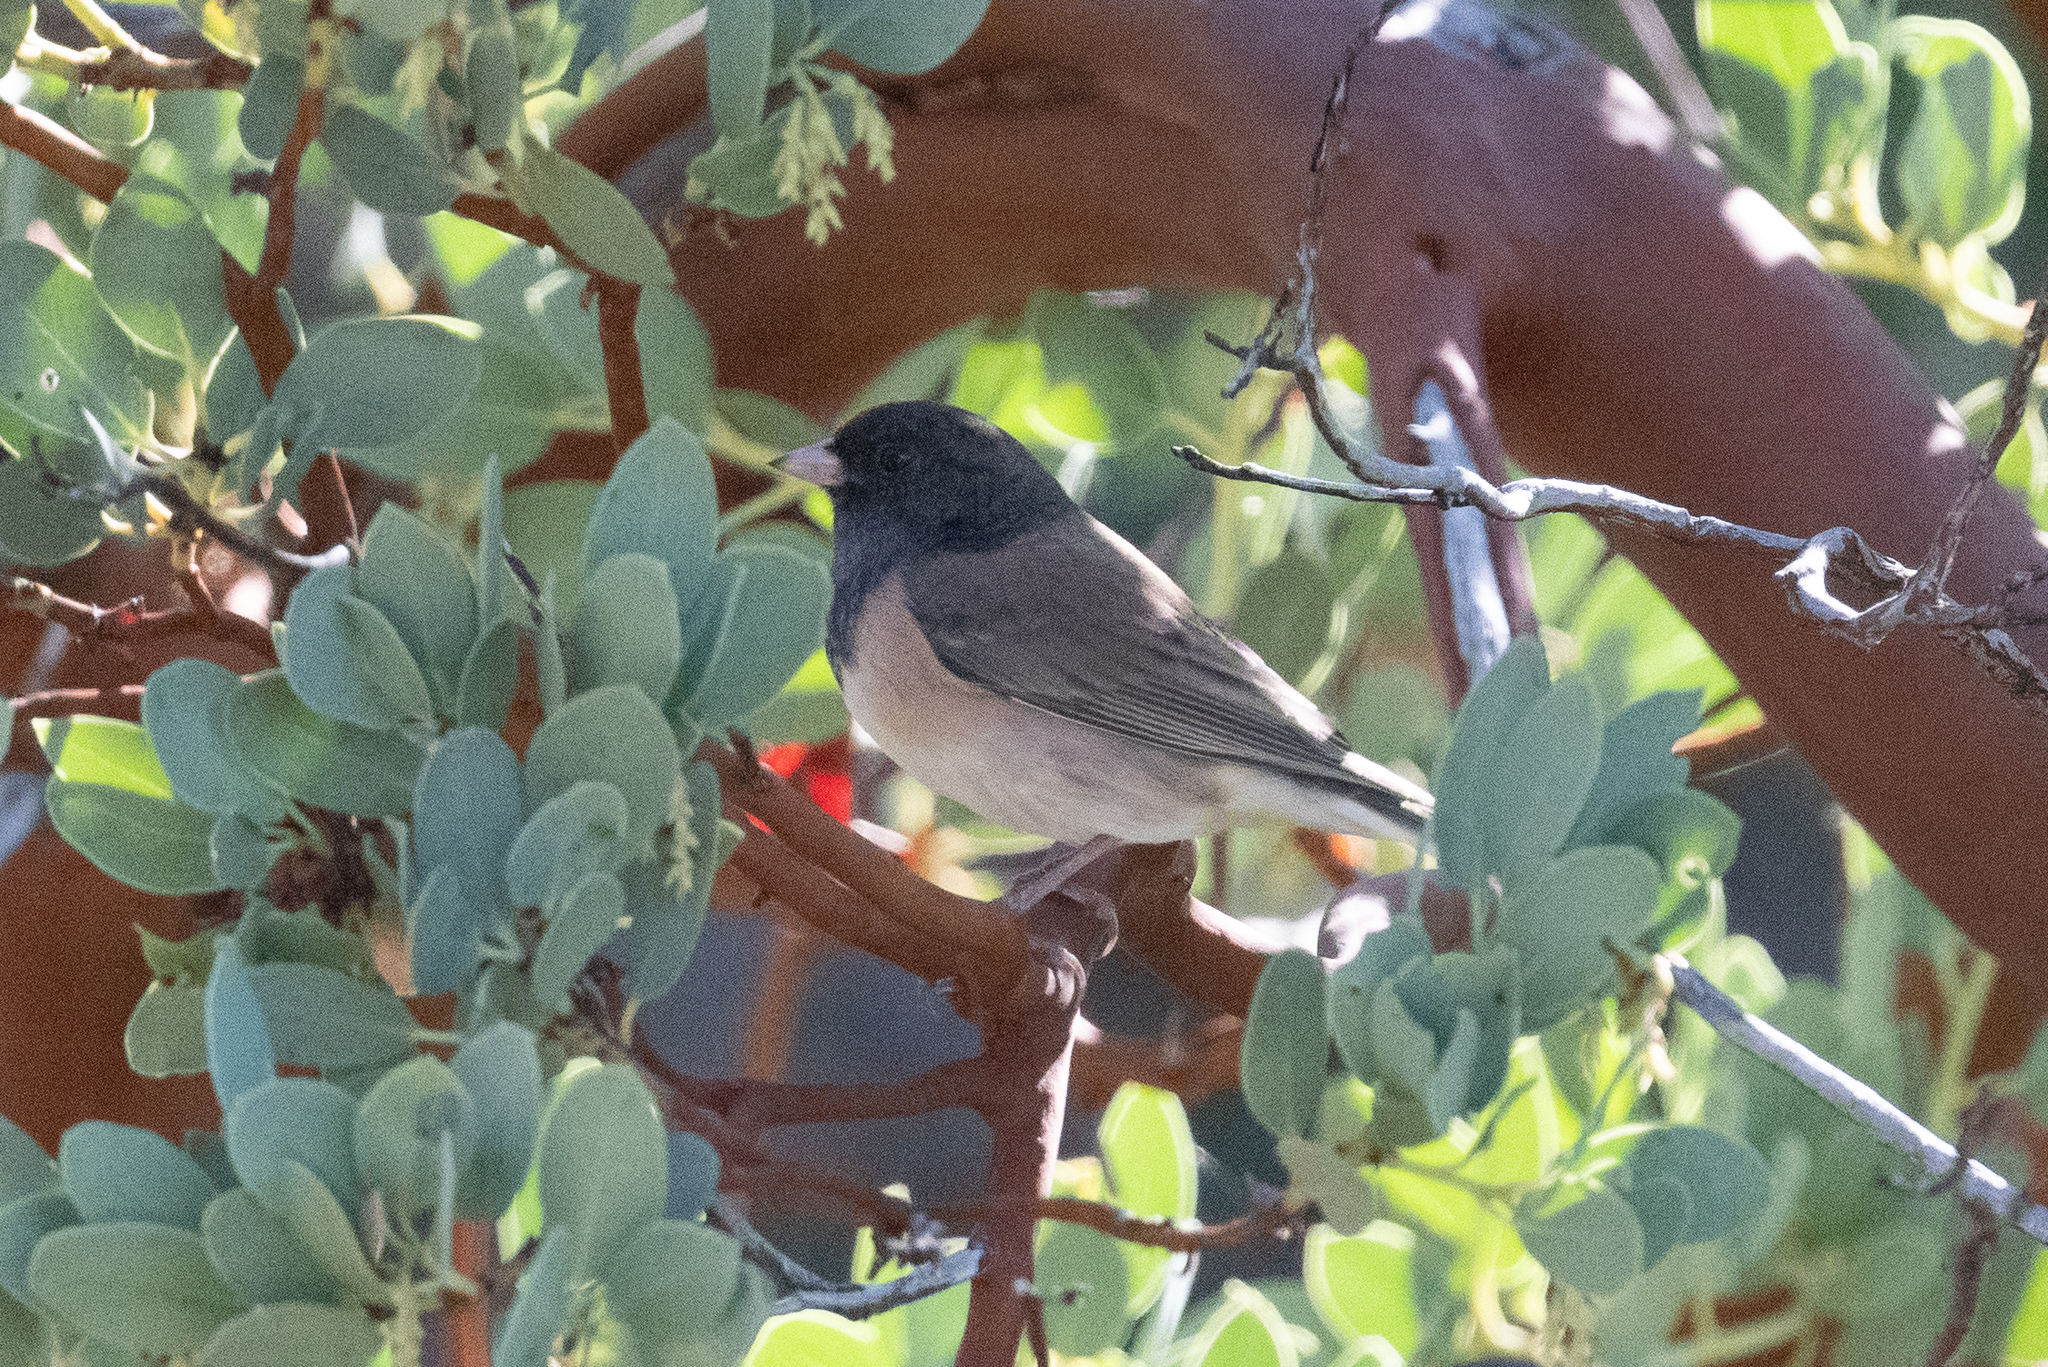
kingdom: Animalia
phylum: Chordata
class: Aves
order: Passeriformes
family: Passerellidae
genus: Junco
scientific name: Junco hyemalis
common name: Dark-eyed junco
